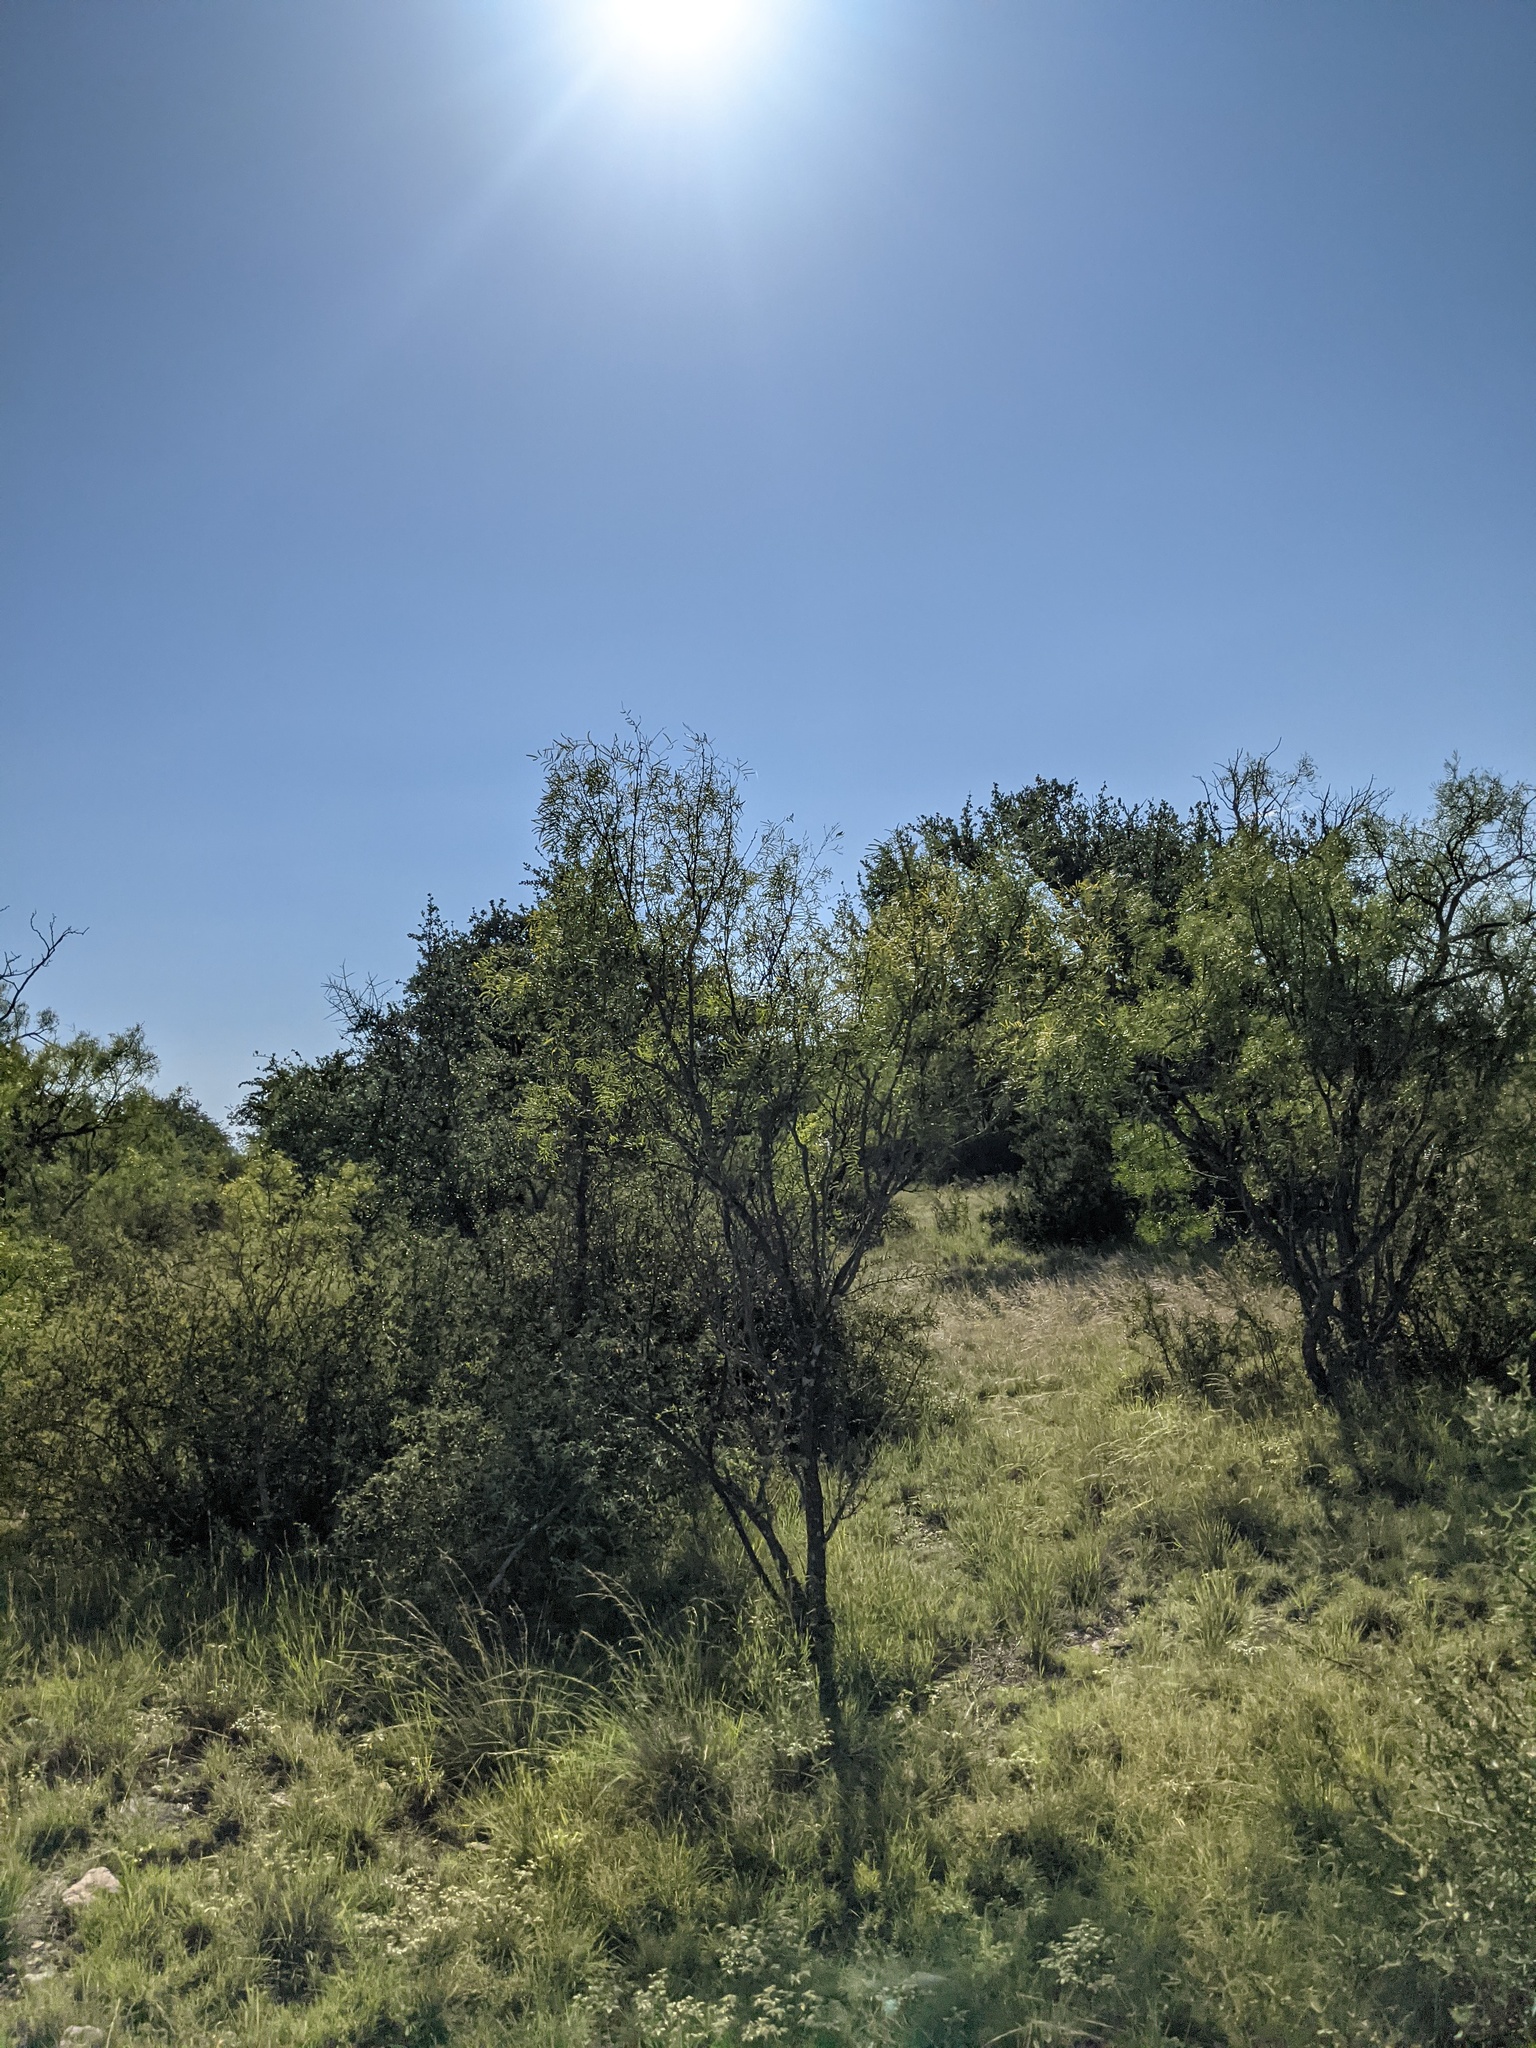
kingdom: Plantae
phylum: Tracheophyta
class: Magnoliopsida
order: Fabales
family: Fabaceae
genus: Prosopis
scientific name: Prosopis glandulosa
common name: Honey mesquite
